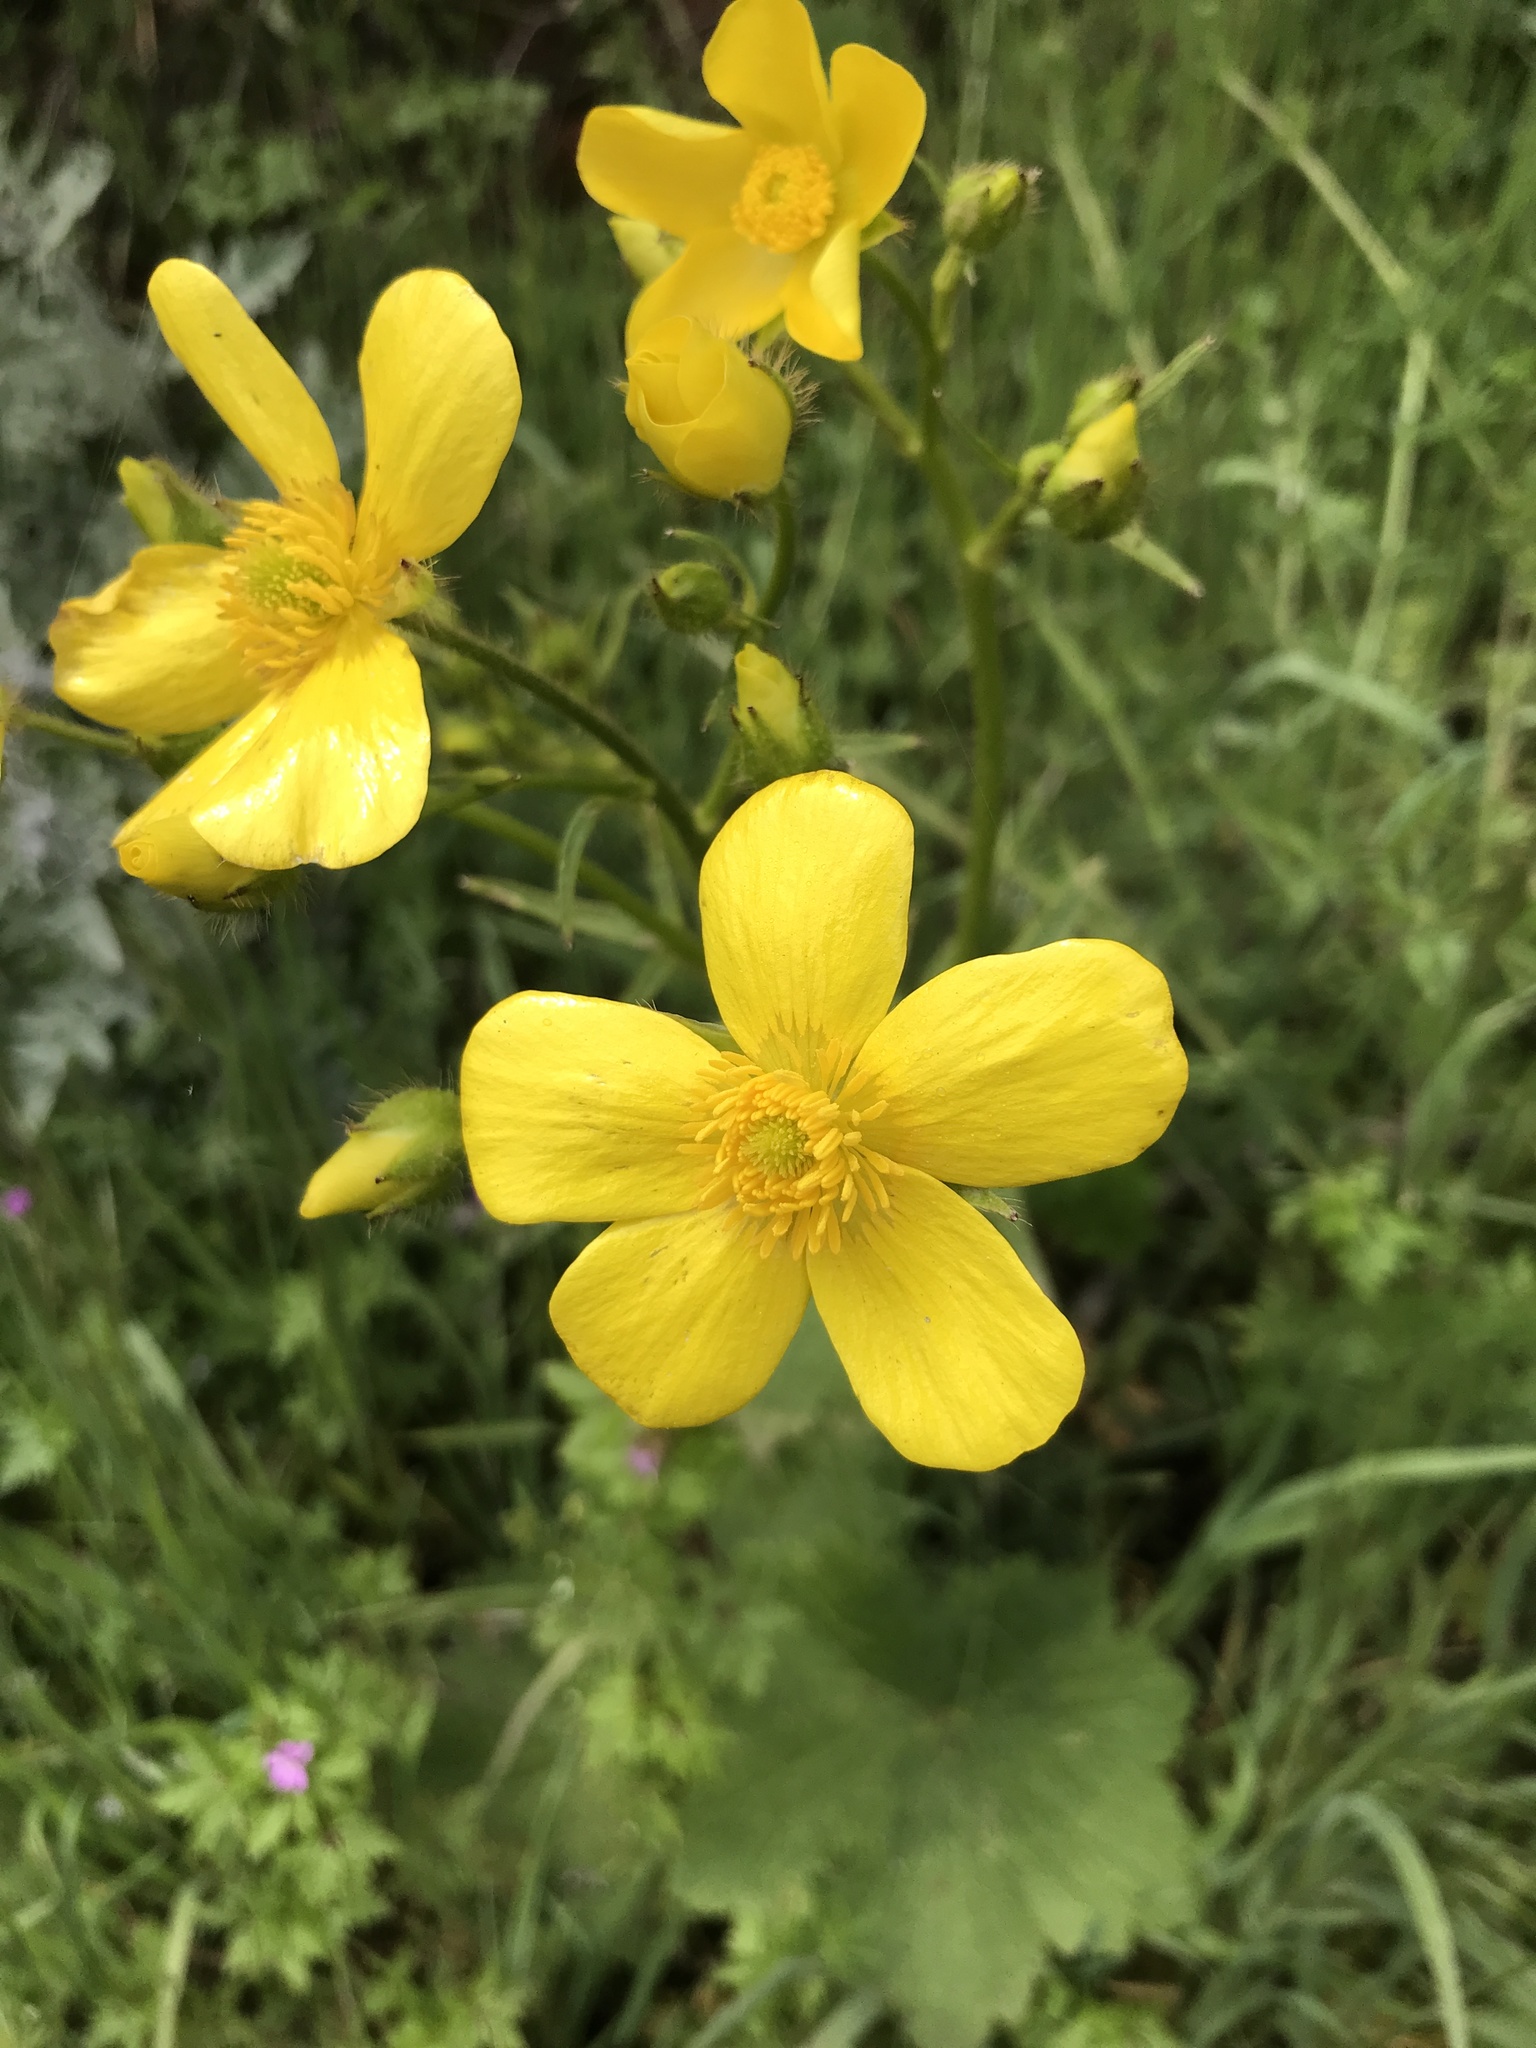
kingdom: Plantae
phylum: Tracheophyta
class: Magnoliopsida
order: Ranunculales
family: Ranunculaceae
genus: Ranunculus
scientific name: Ranunculus cortusifolius
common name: Azores buttercup
